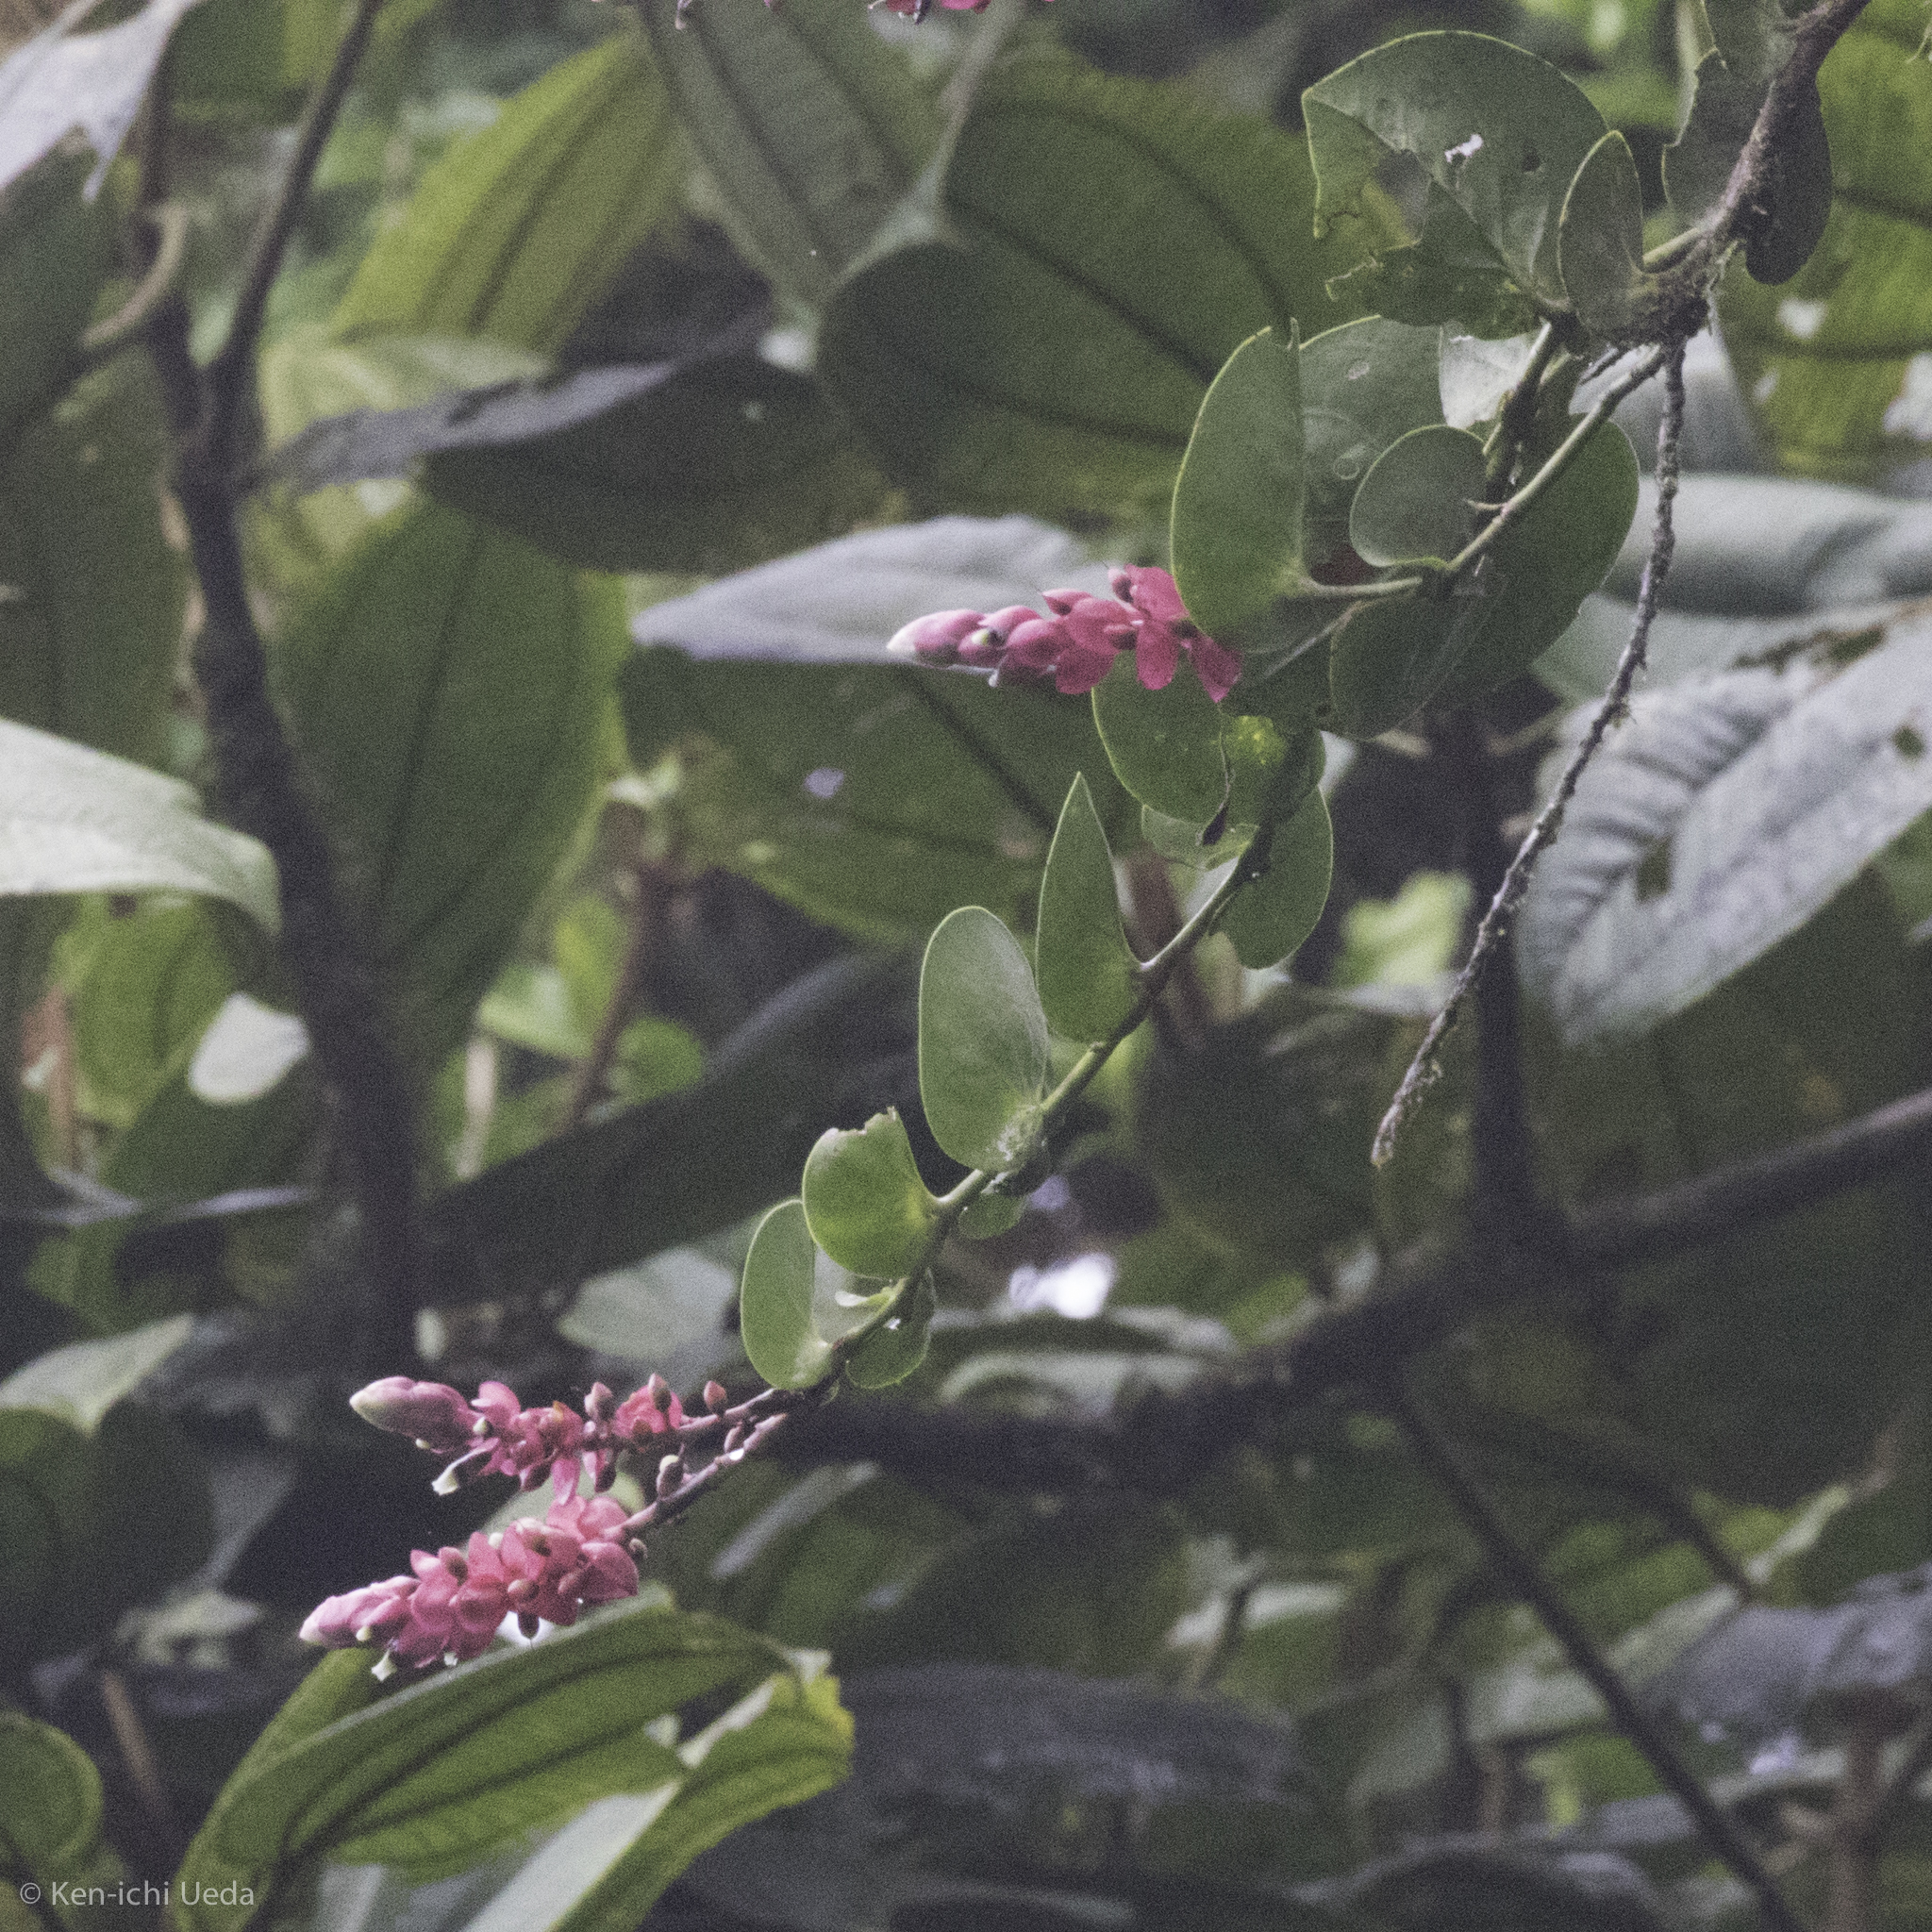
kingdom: Plantae
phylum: Tracheophyta
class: Magnoliopsida
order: Ericales
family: Ericaceae
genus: Cavendishia
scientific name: Cavendishia complectens
